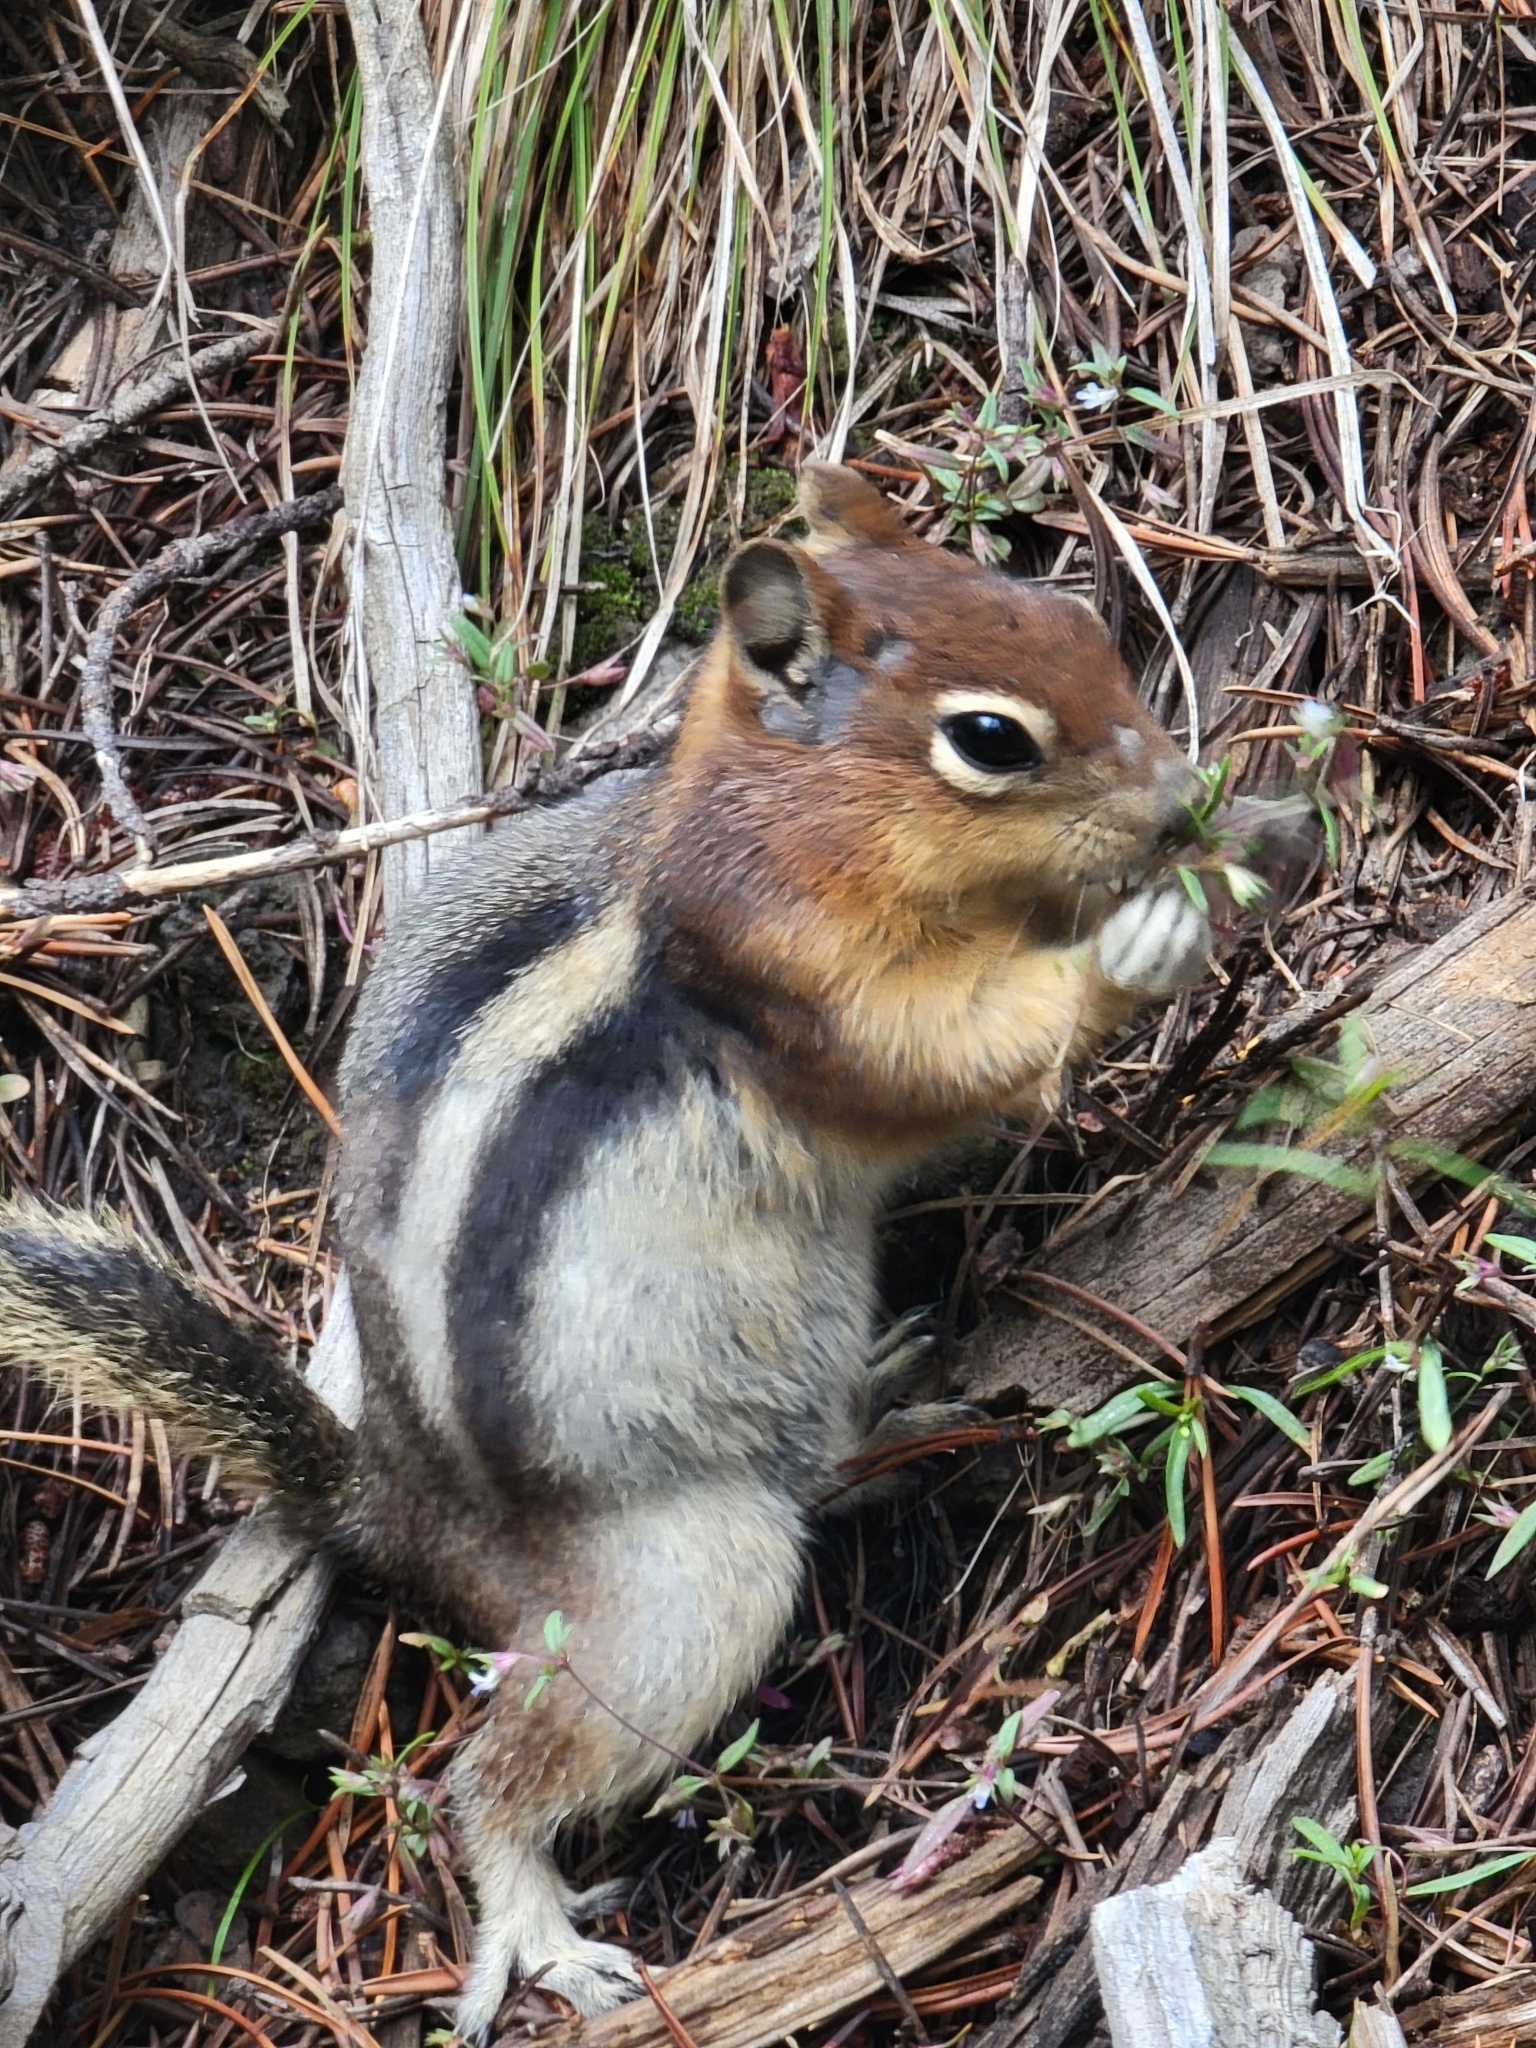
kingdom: Animalia
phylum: Chordata
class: Mammalia
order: Rodentia
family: Sciuridae
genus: Callospermophilus
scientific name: Callospermophilus lateralis
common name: Golden-mantled ground squirrel
